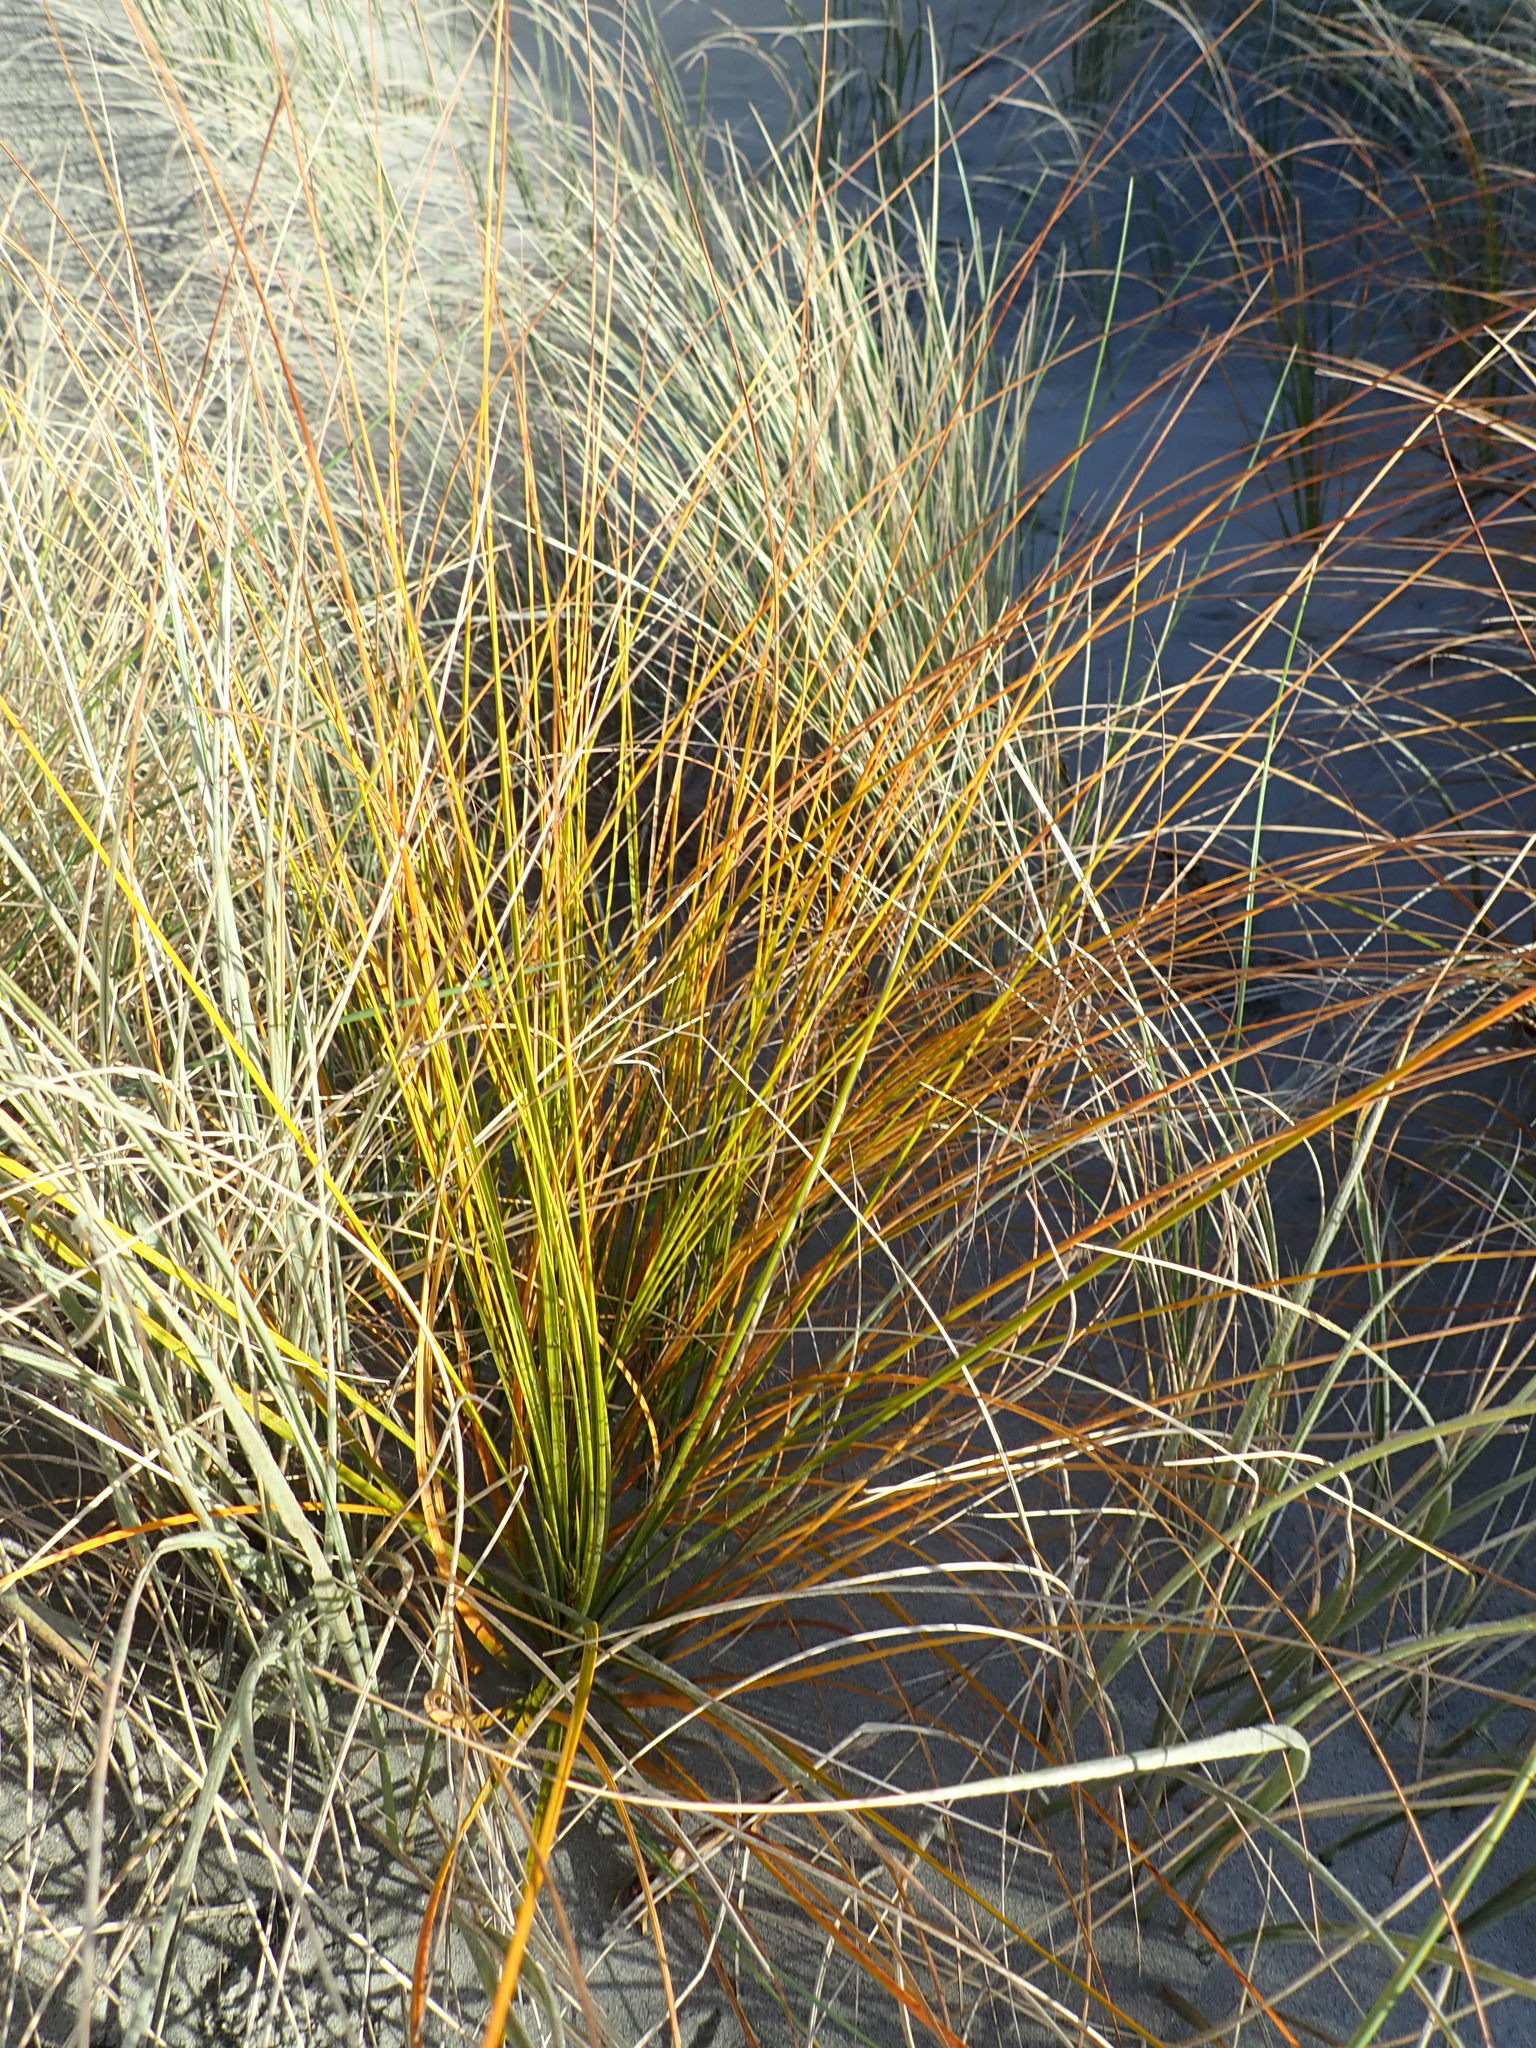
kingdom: Plantae
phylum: Tracheophyta
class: Liliopsida
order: Poales
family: Cyperaceae
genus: Ficinia
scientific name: Ficinia spiralis
